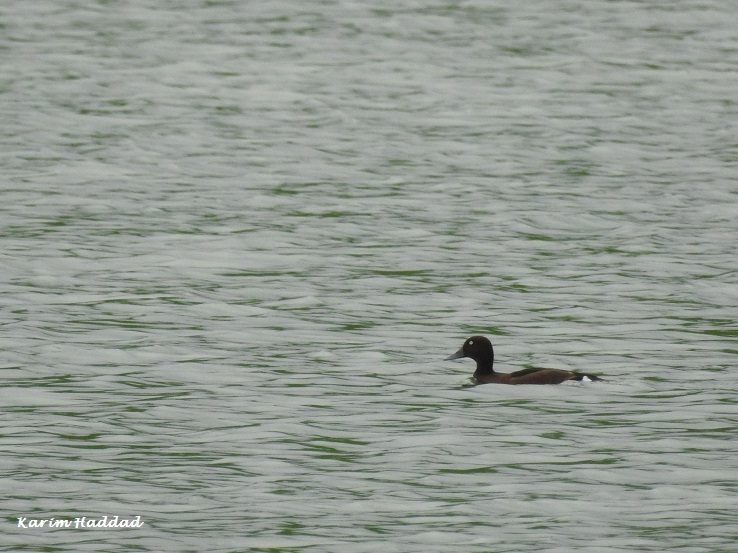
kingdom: Animalia
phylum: Chordata
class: Aves
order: Anseriformes
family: Anatidae
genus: Aythya
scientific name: Aythya nyroca
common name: Ferruginous duck
